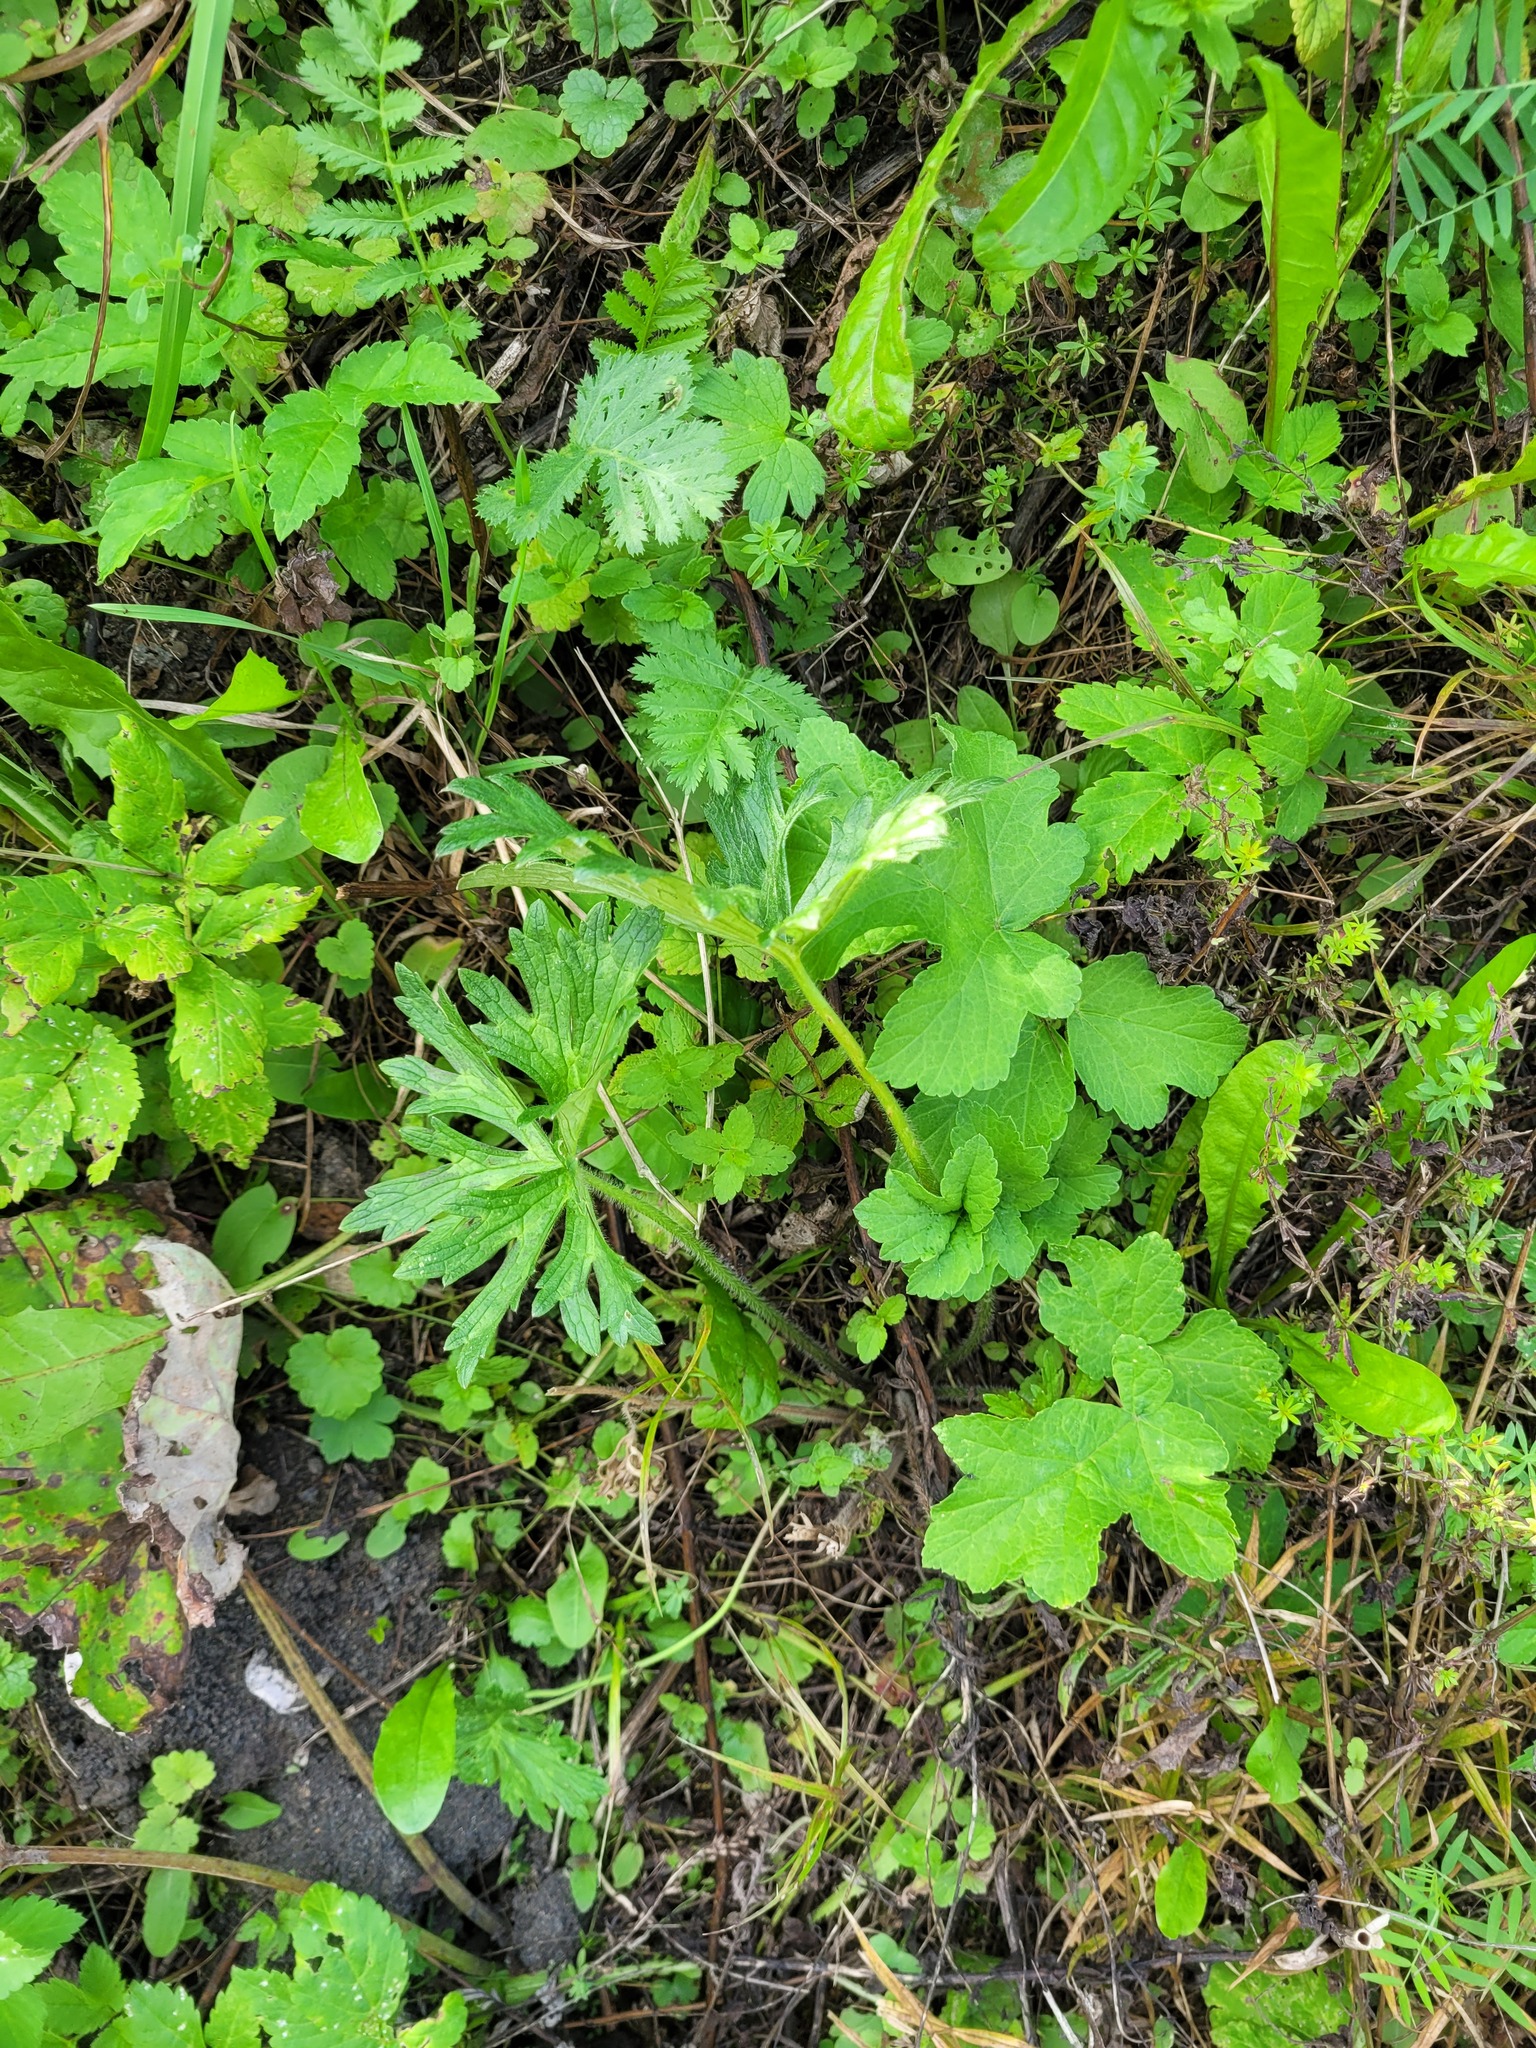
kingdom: Plantae
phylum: Tracheophyta
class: Magnoliopsida
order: Ranunculales
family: Ranunculaceae
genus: Ranunculus
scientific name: Ranunculus polyanthemos
